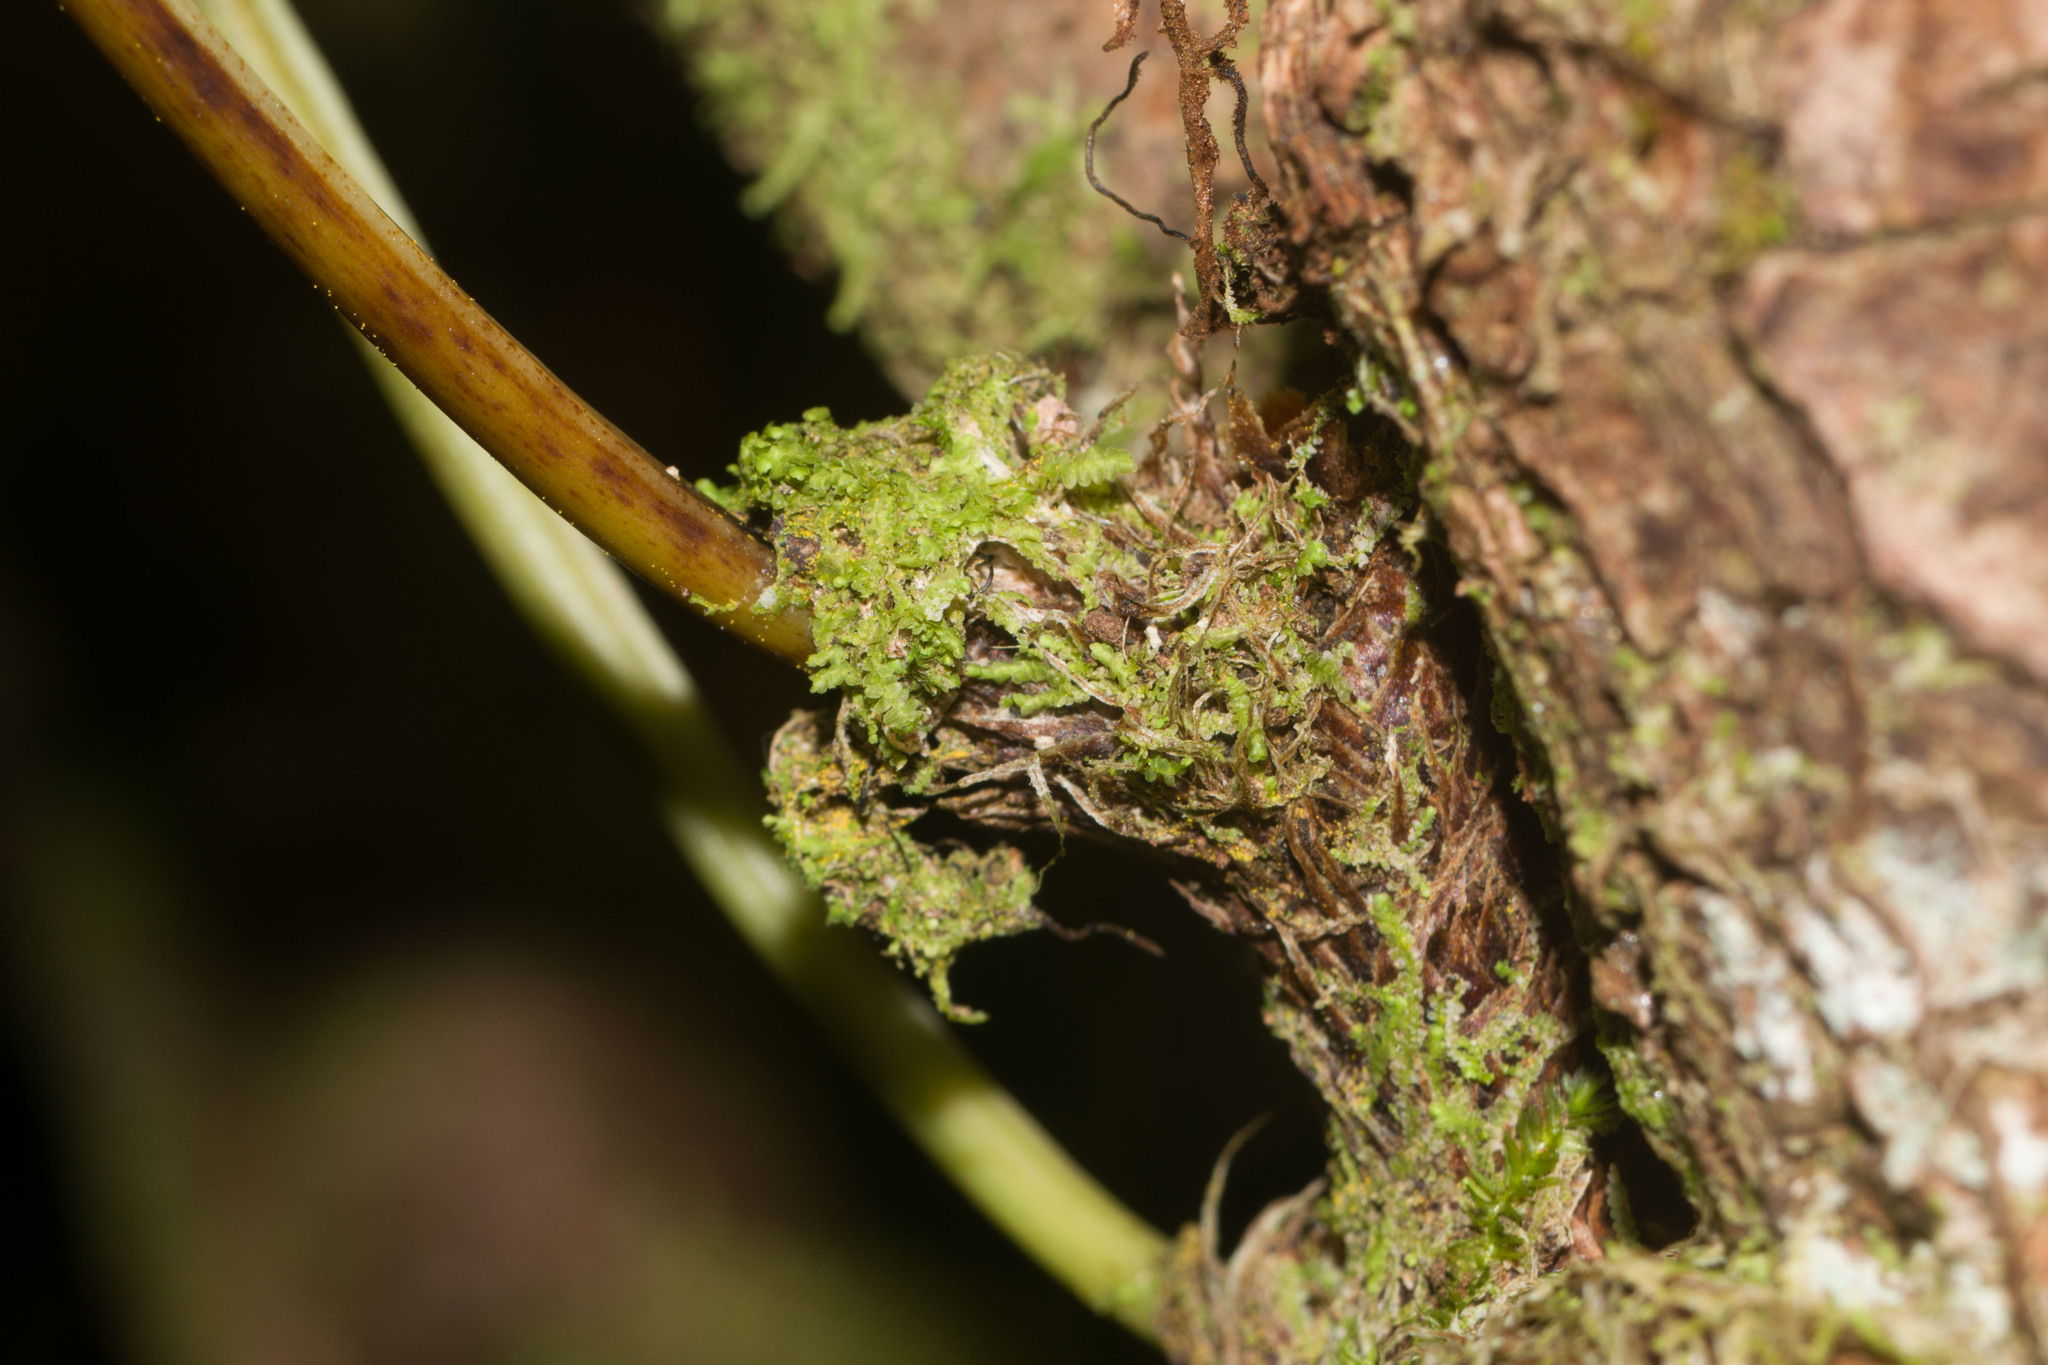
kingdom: Plantae
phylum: Tracheophyta
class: Polypodiopsida
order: Polypodiales
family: Polypodiaceae
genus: Polypodium
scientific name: Polypodium pellucidum
